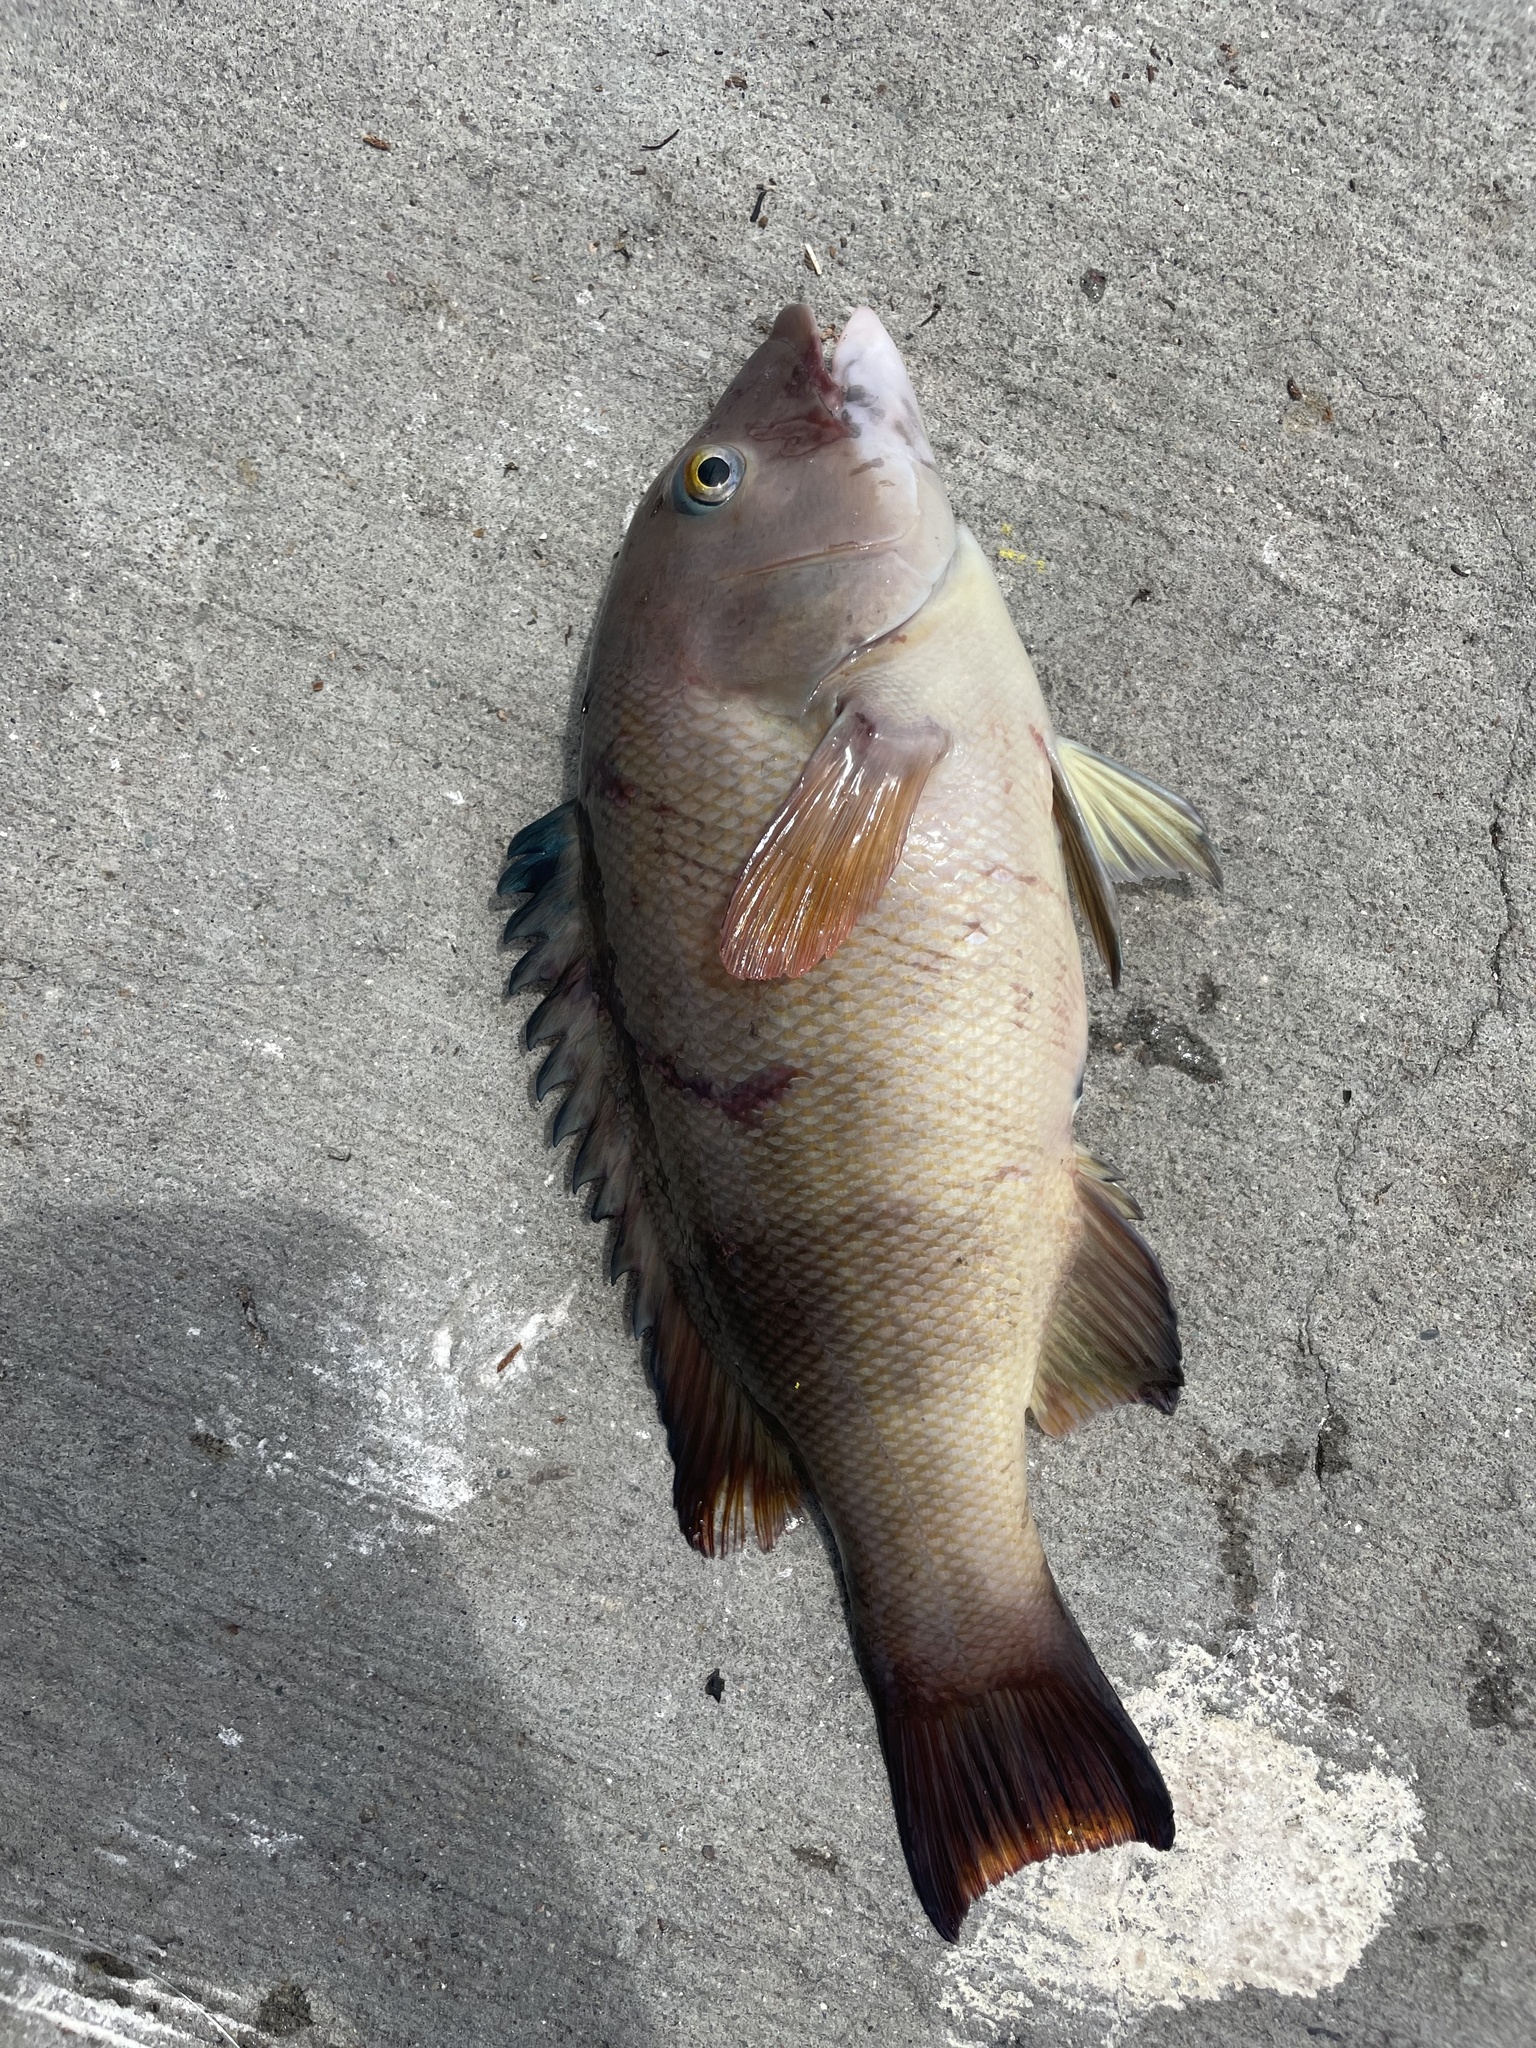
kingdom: Animalia
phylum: Chordata
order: Perciformes
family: Labridae
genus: Semicossyphus
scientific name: Semicossyphus pulcher
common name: California sheephead
